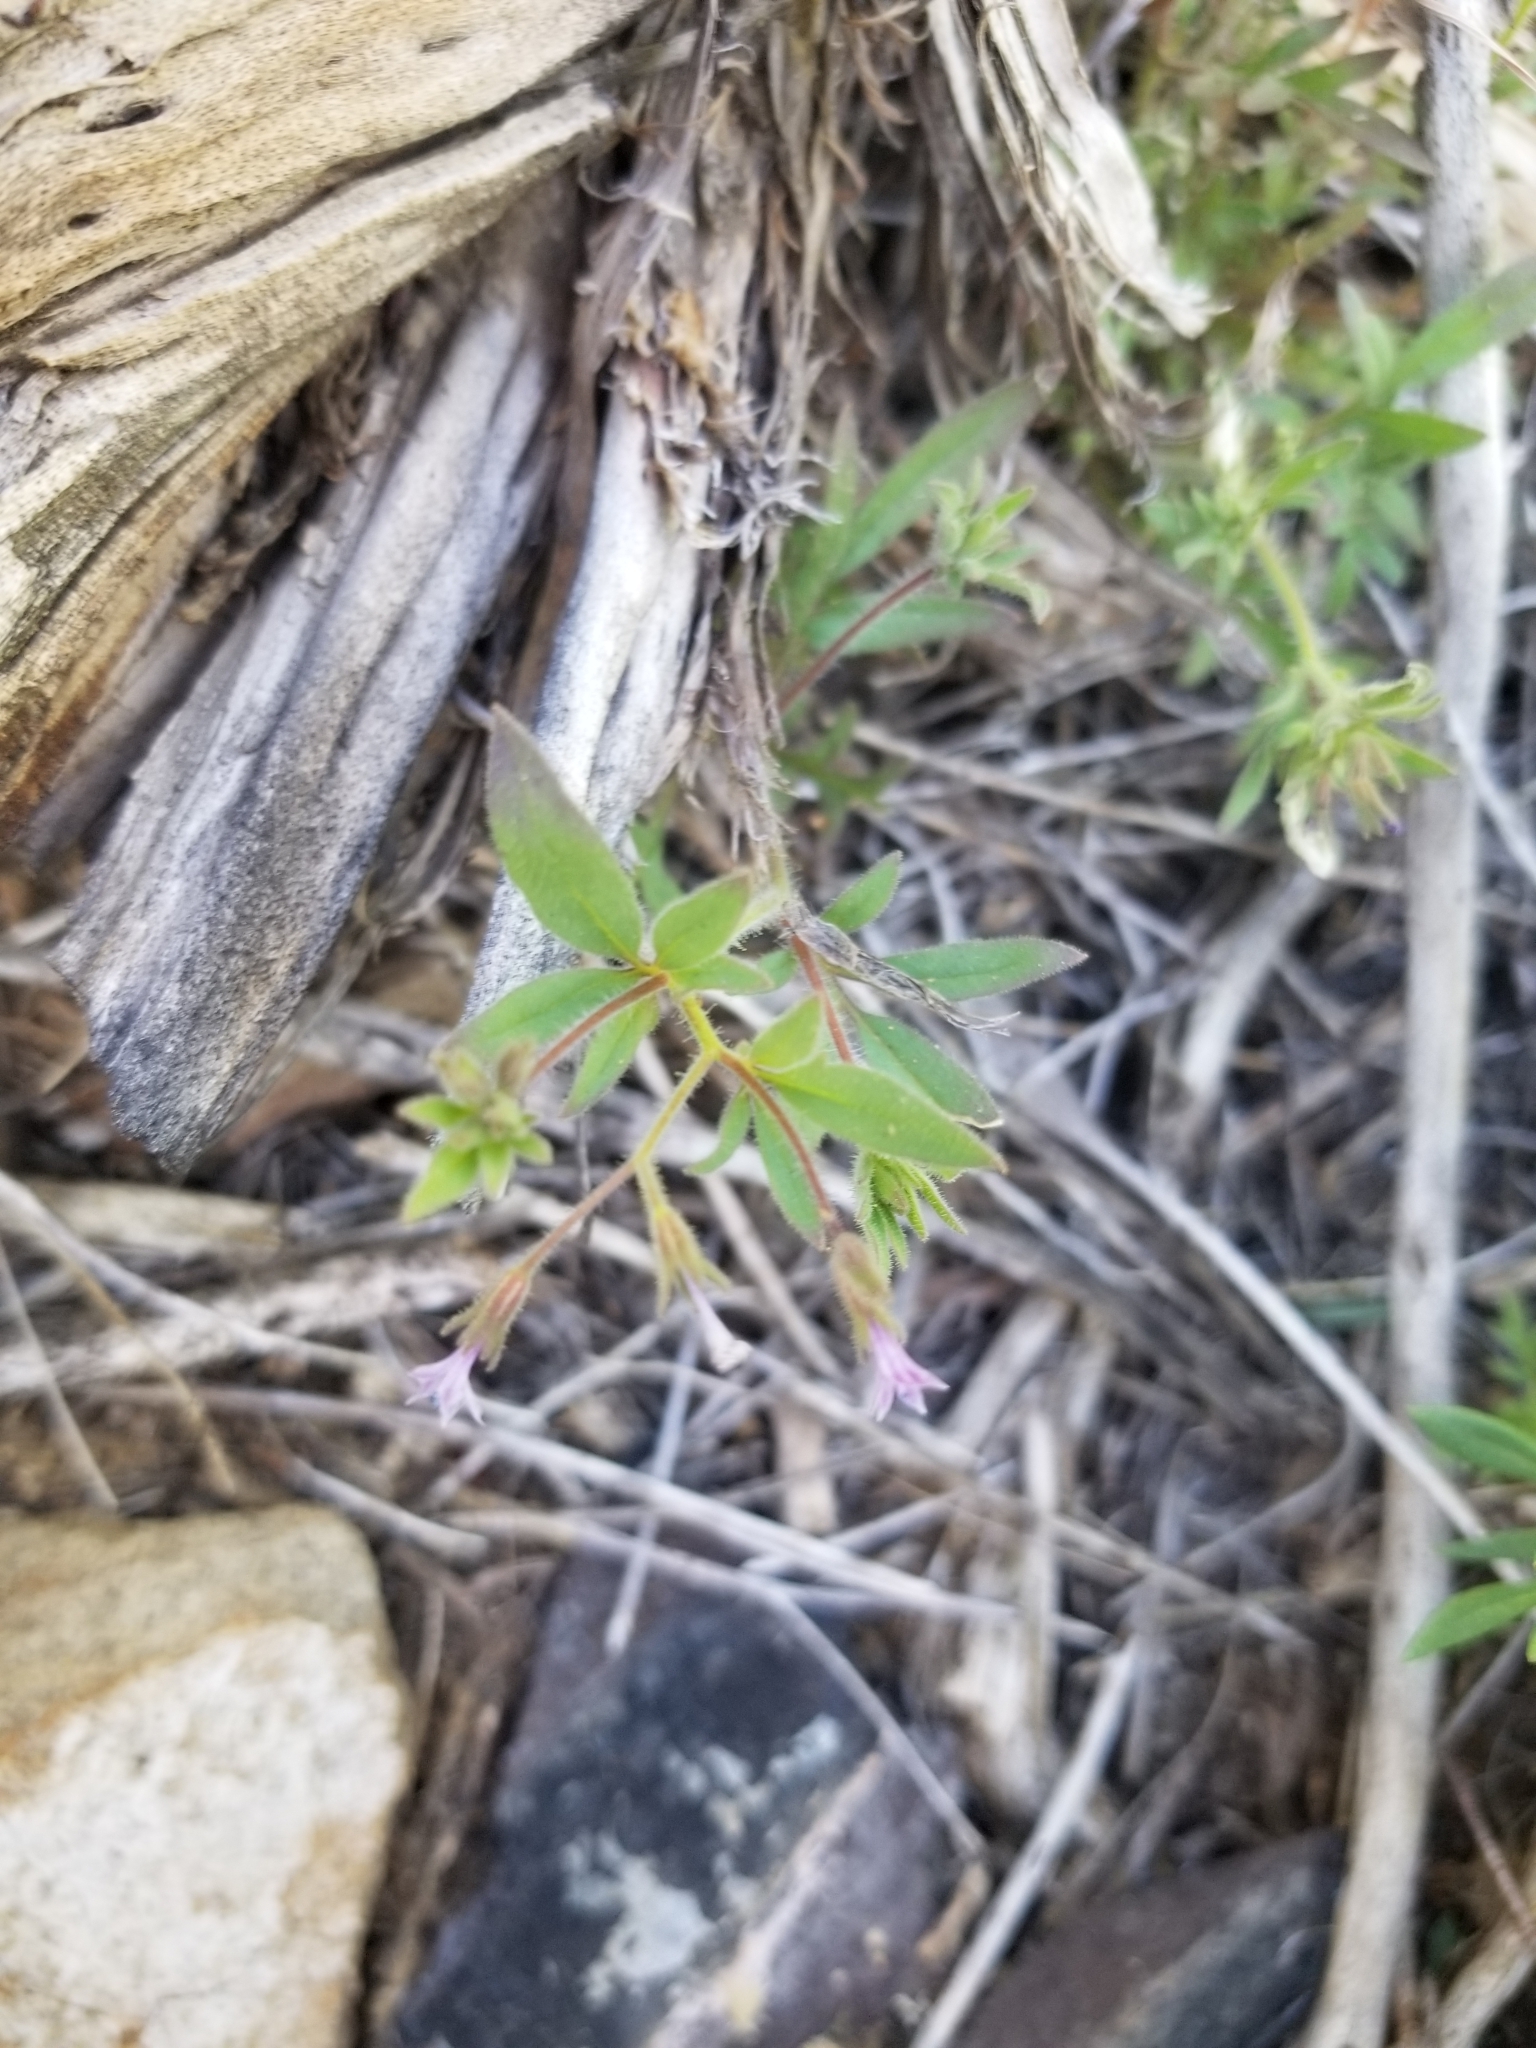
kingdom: Plantae
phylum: Tracheophyta
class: Magnoliopsida
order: Ericales
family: Polemoniaceae
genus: Allophyllum
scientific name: Allophyllum glutinosum
